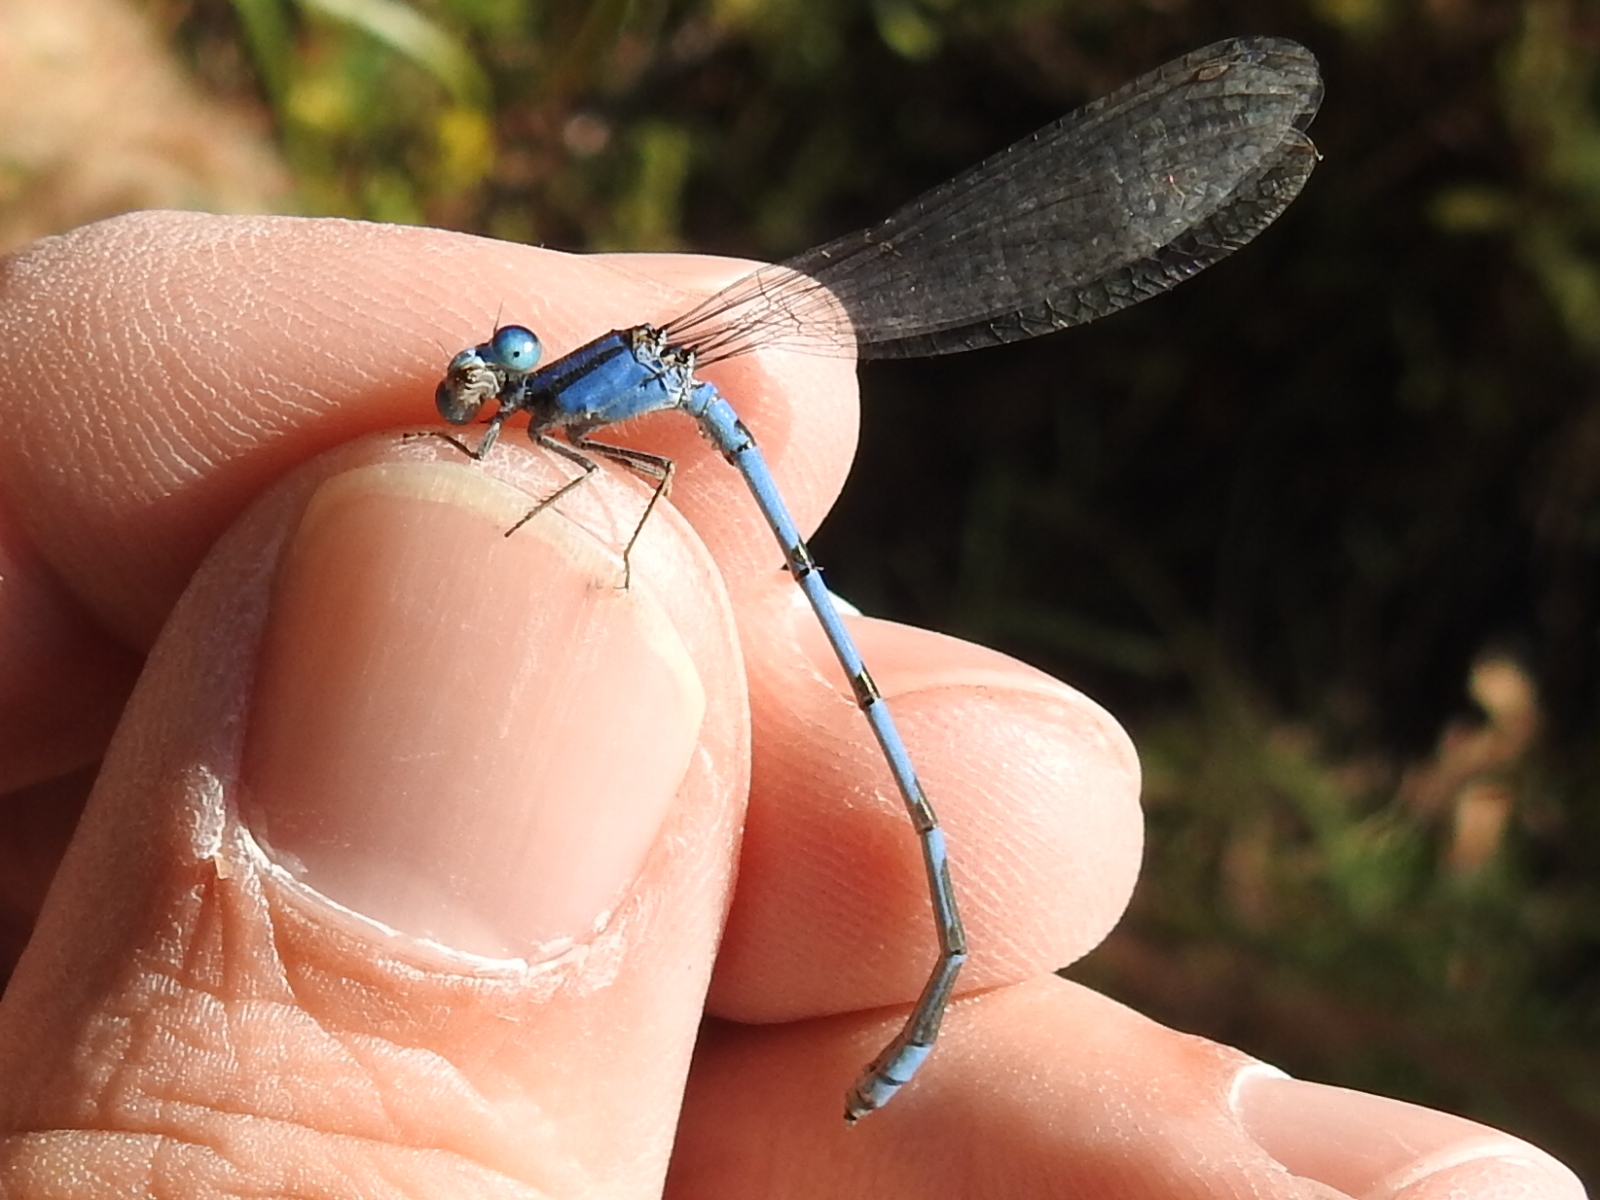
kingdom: Animalia
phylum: Arthropoda
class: Insecta
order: Odonata
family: Coenagrionidae
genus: Enallagma
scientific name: Enallagma civile
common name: Damselfly
